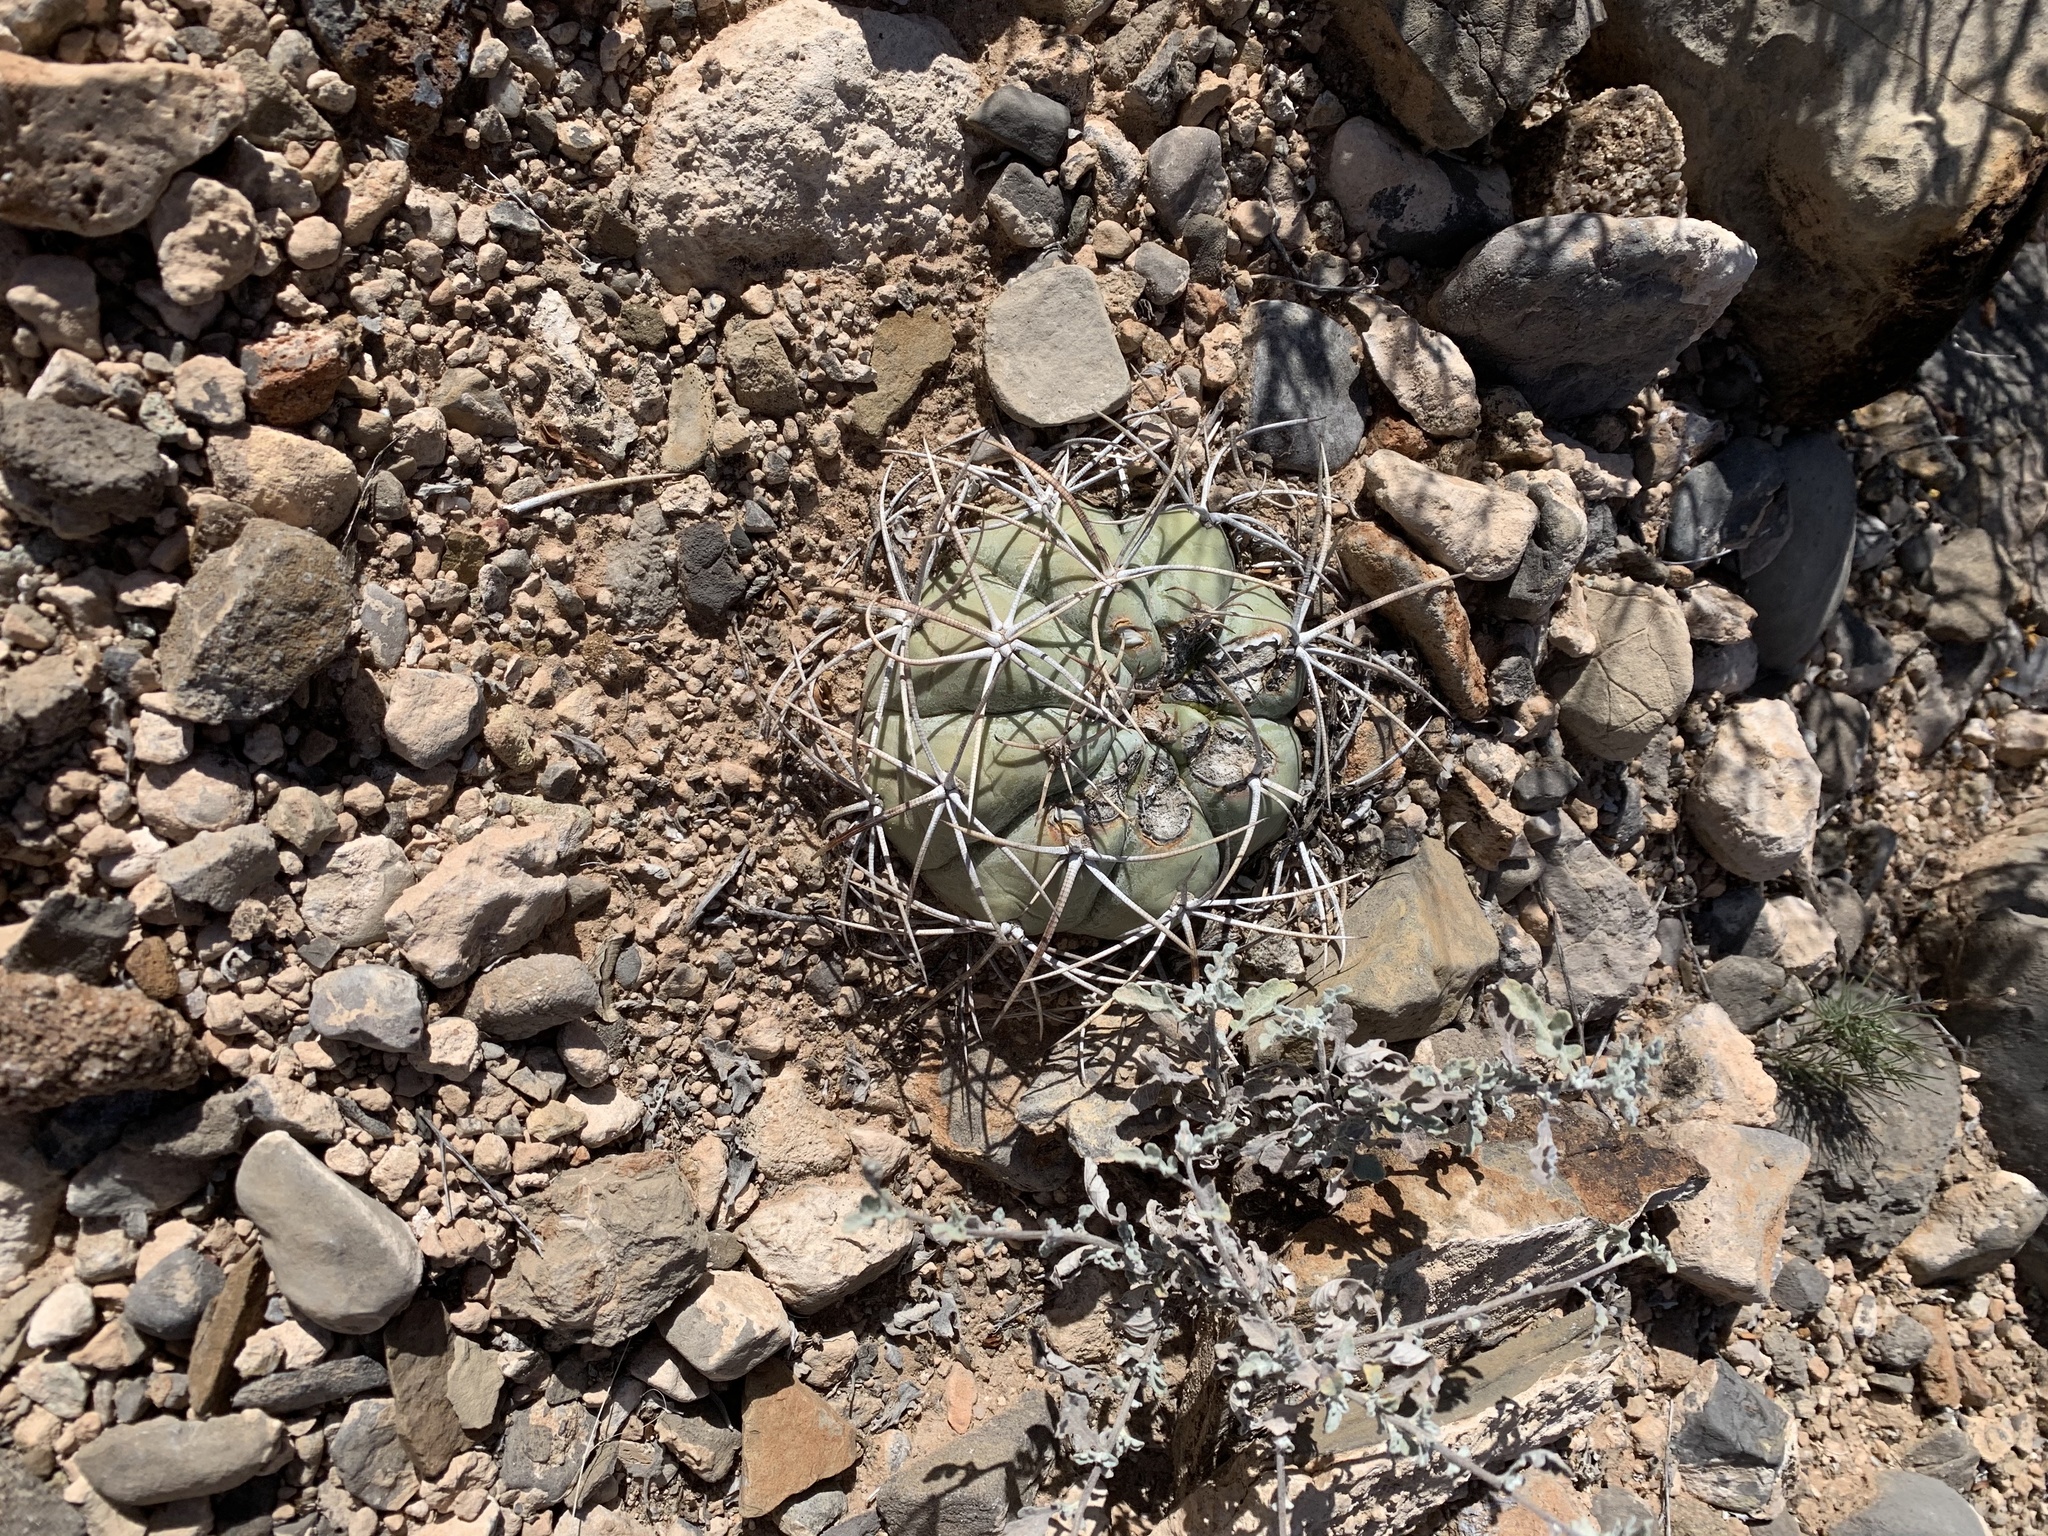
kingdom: Plantae
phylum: Tracheophyta
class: Magnoliopsida
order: Caryophyllales
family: Cactaceae
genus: Echinocactus
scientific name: Echinocactus horizonthalonius
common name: Devilshead
